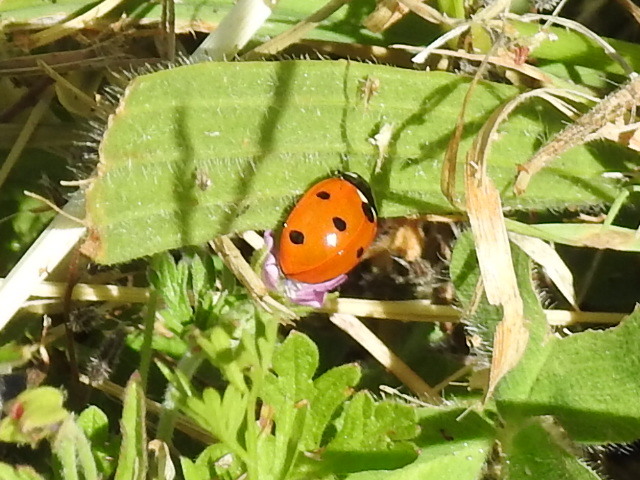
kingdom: Animalia
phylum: Arthropoda
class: Insecta
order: Coleoptera
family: Coccinellidae
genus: Coccinella
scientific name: Coccinella septempunctata
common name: Sevenspotted lady beetle
